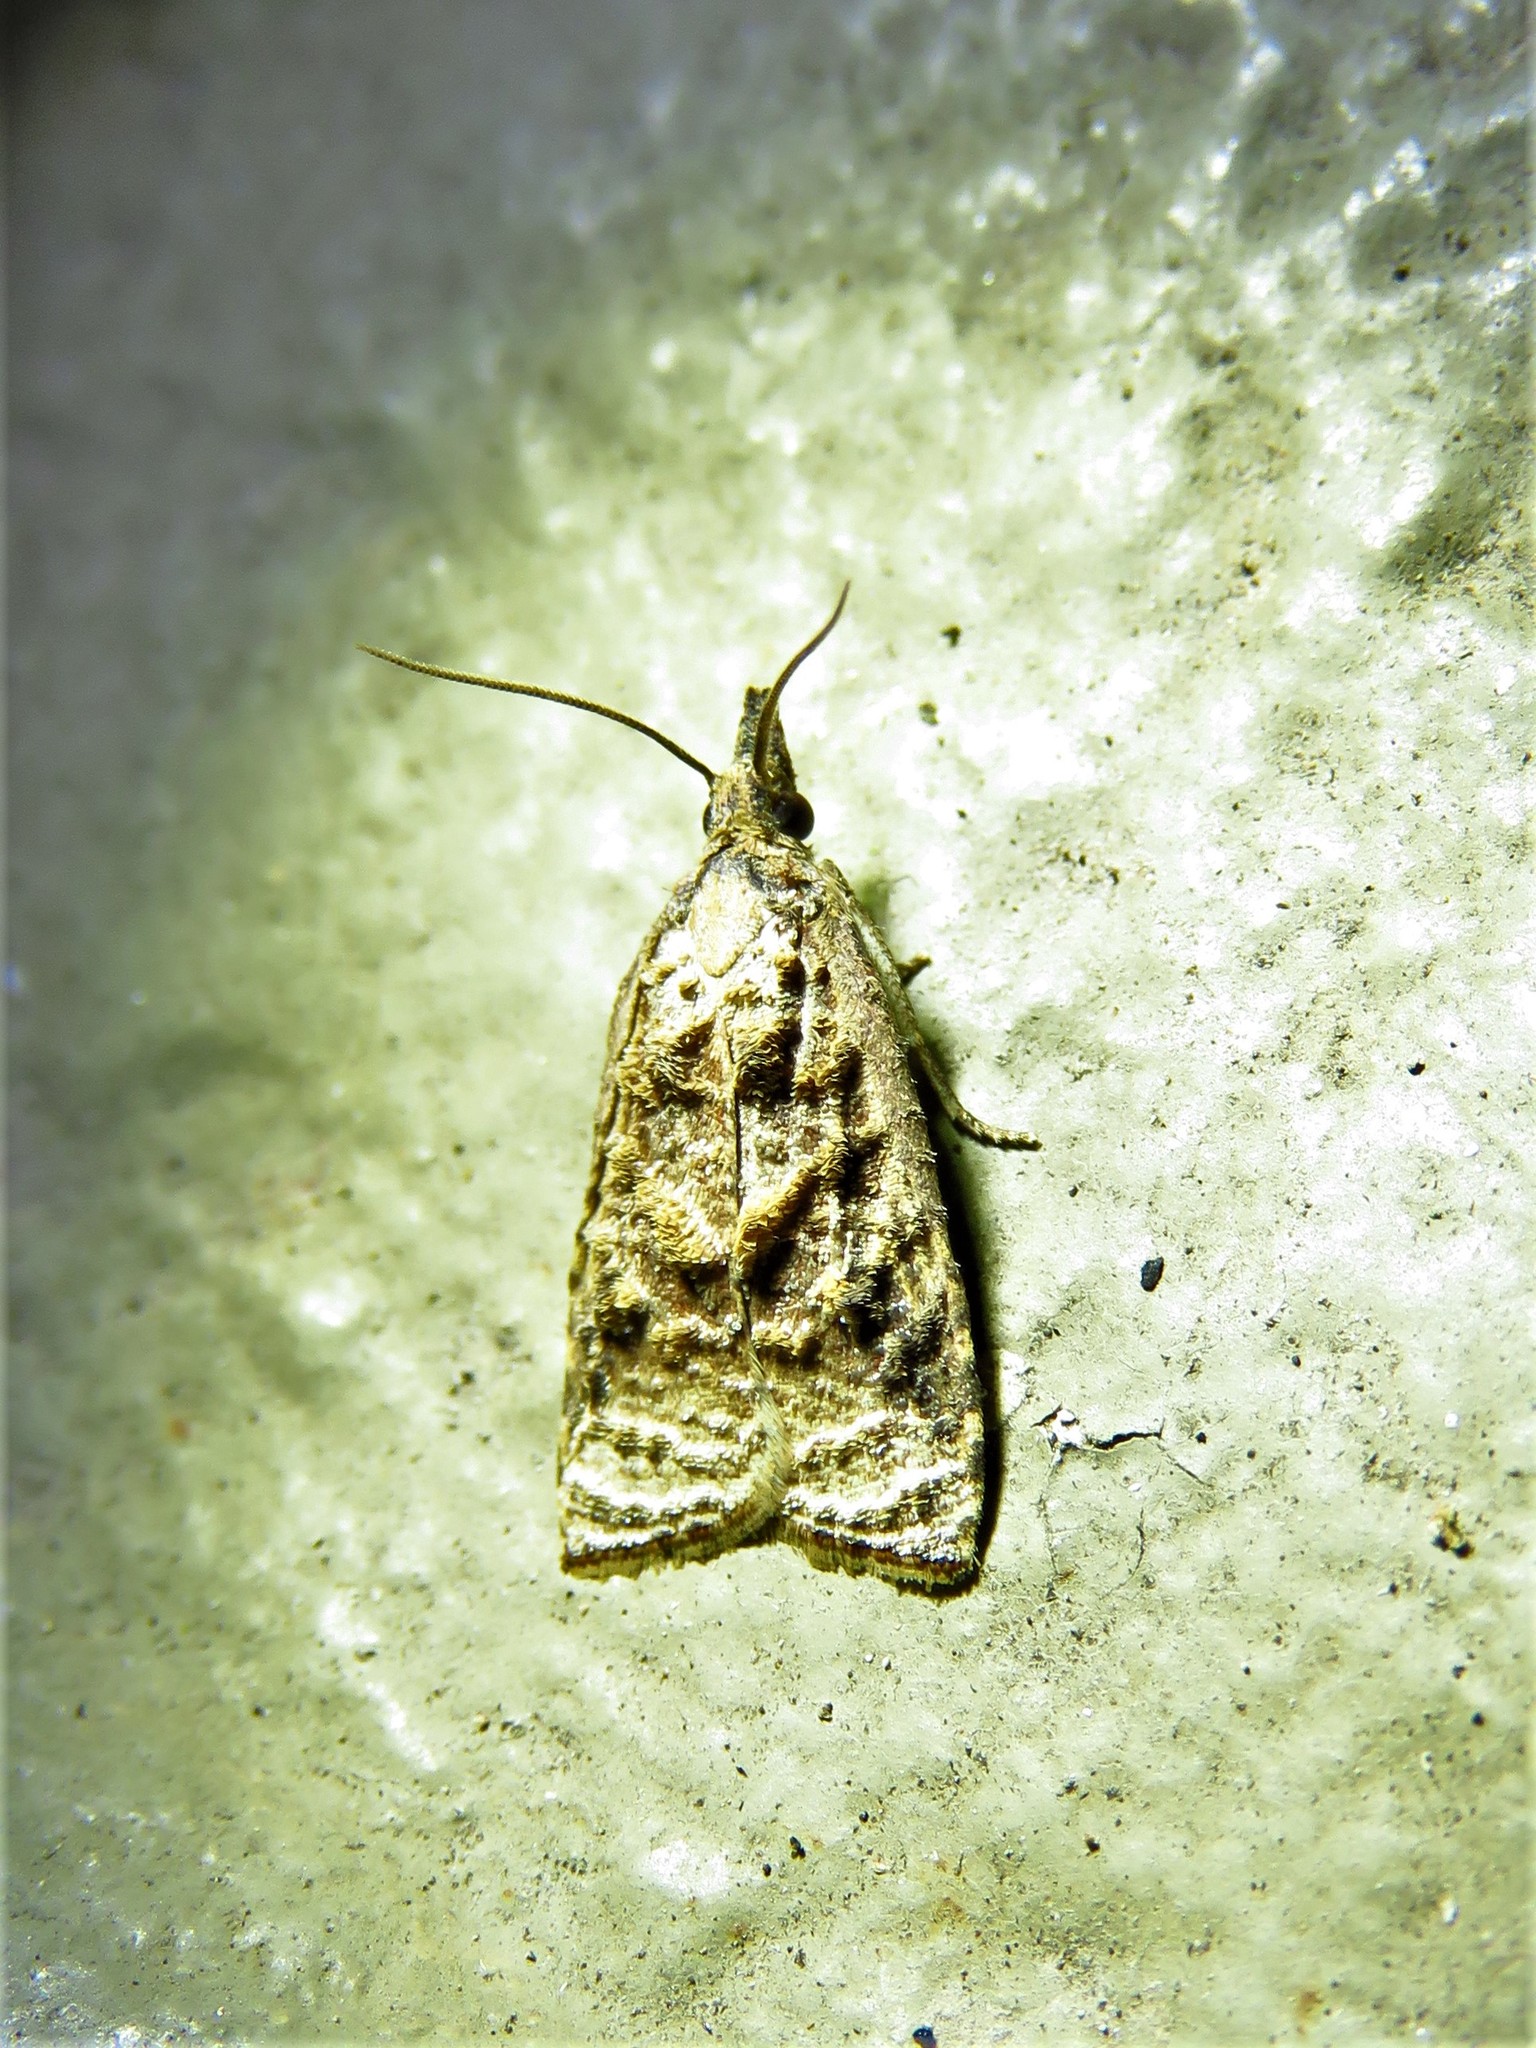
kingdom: Animalia
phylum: Arthropoda
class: Insecta
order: Lepidoptera
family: Tortricidae
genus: Platynota
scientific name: Platynota rostrana
